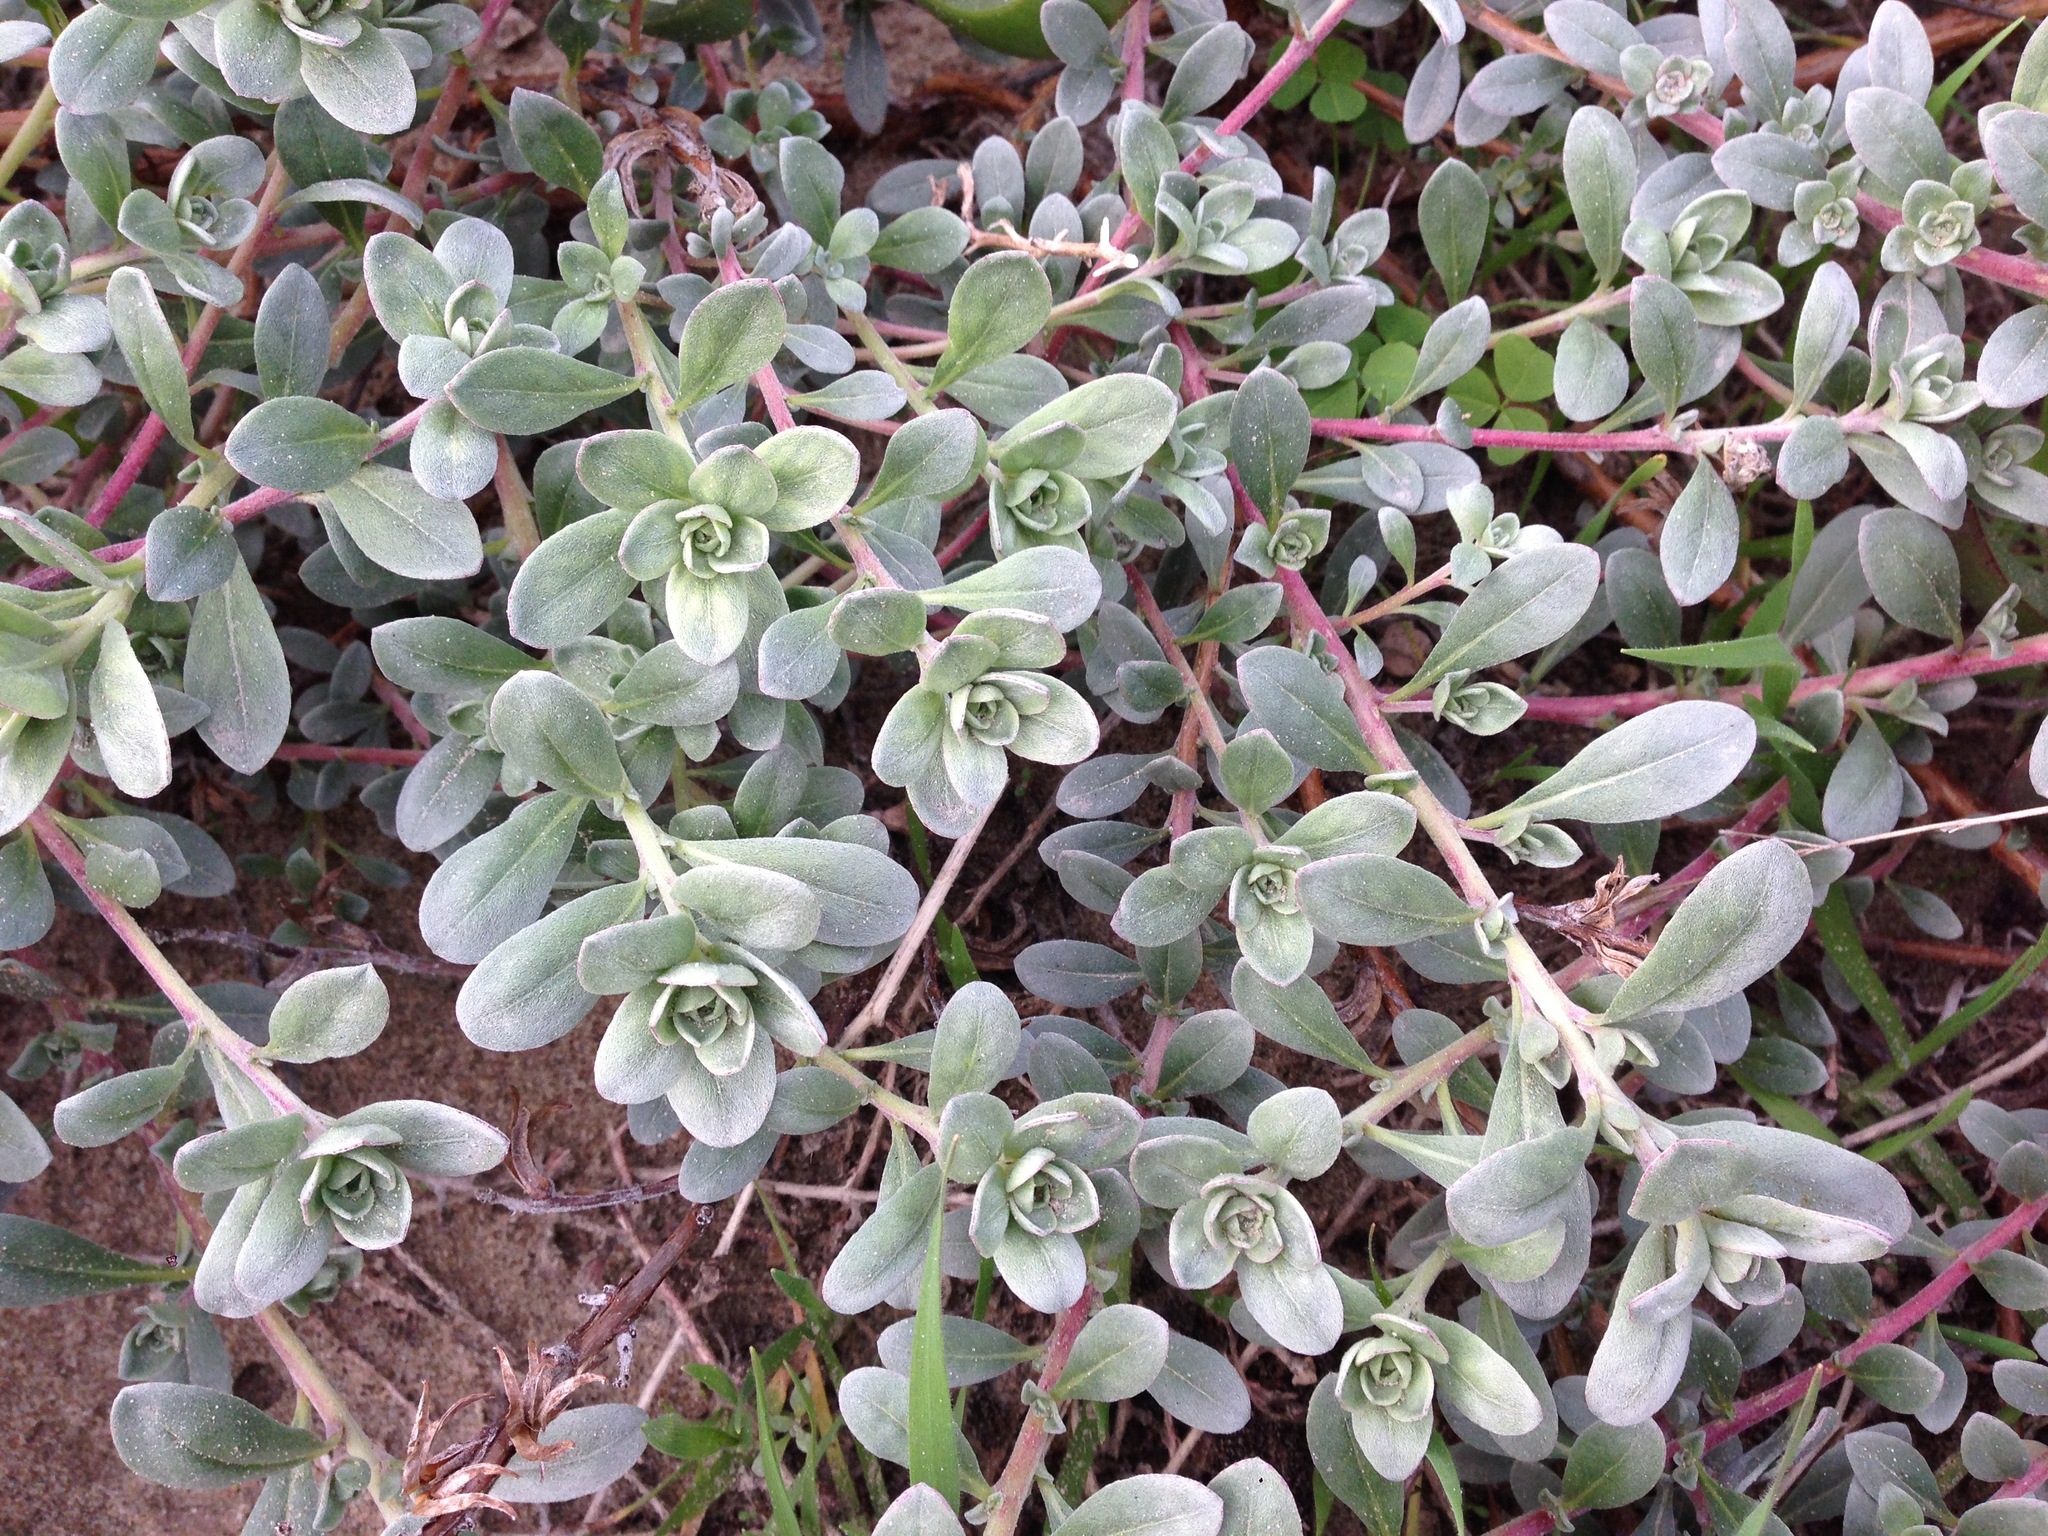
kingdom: Plantae
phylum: Tracheophyta
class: Magnoliopsida
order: Myrtales
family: Onagraceae
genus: Camissoniopsis
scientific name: Camissoniopsis cheiranthifolia
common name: Beach suncup
